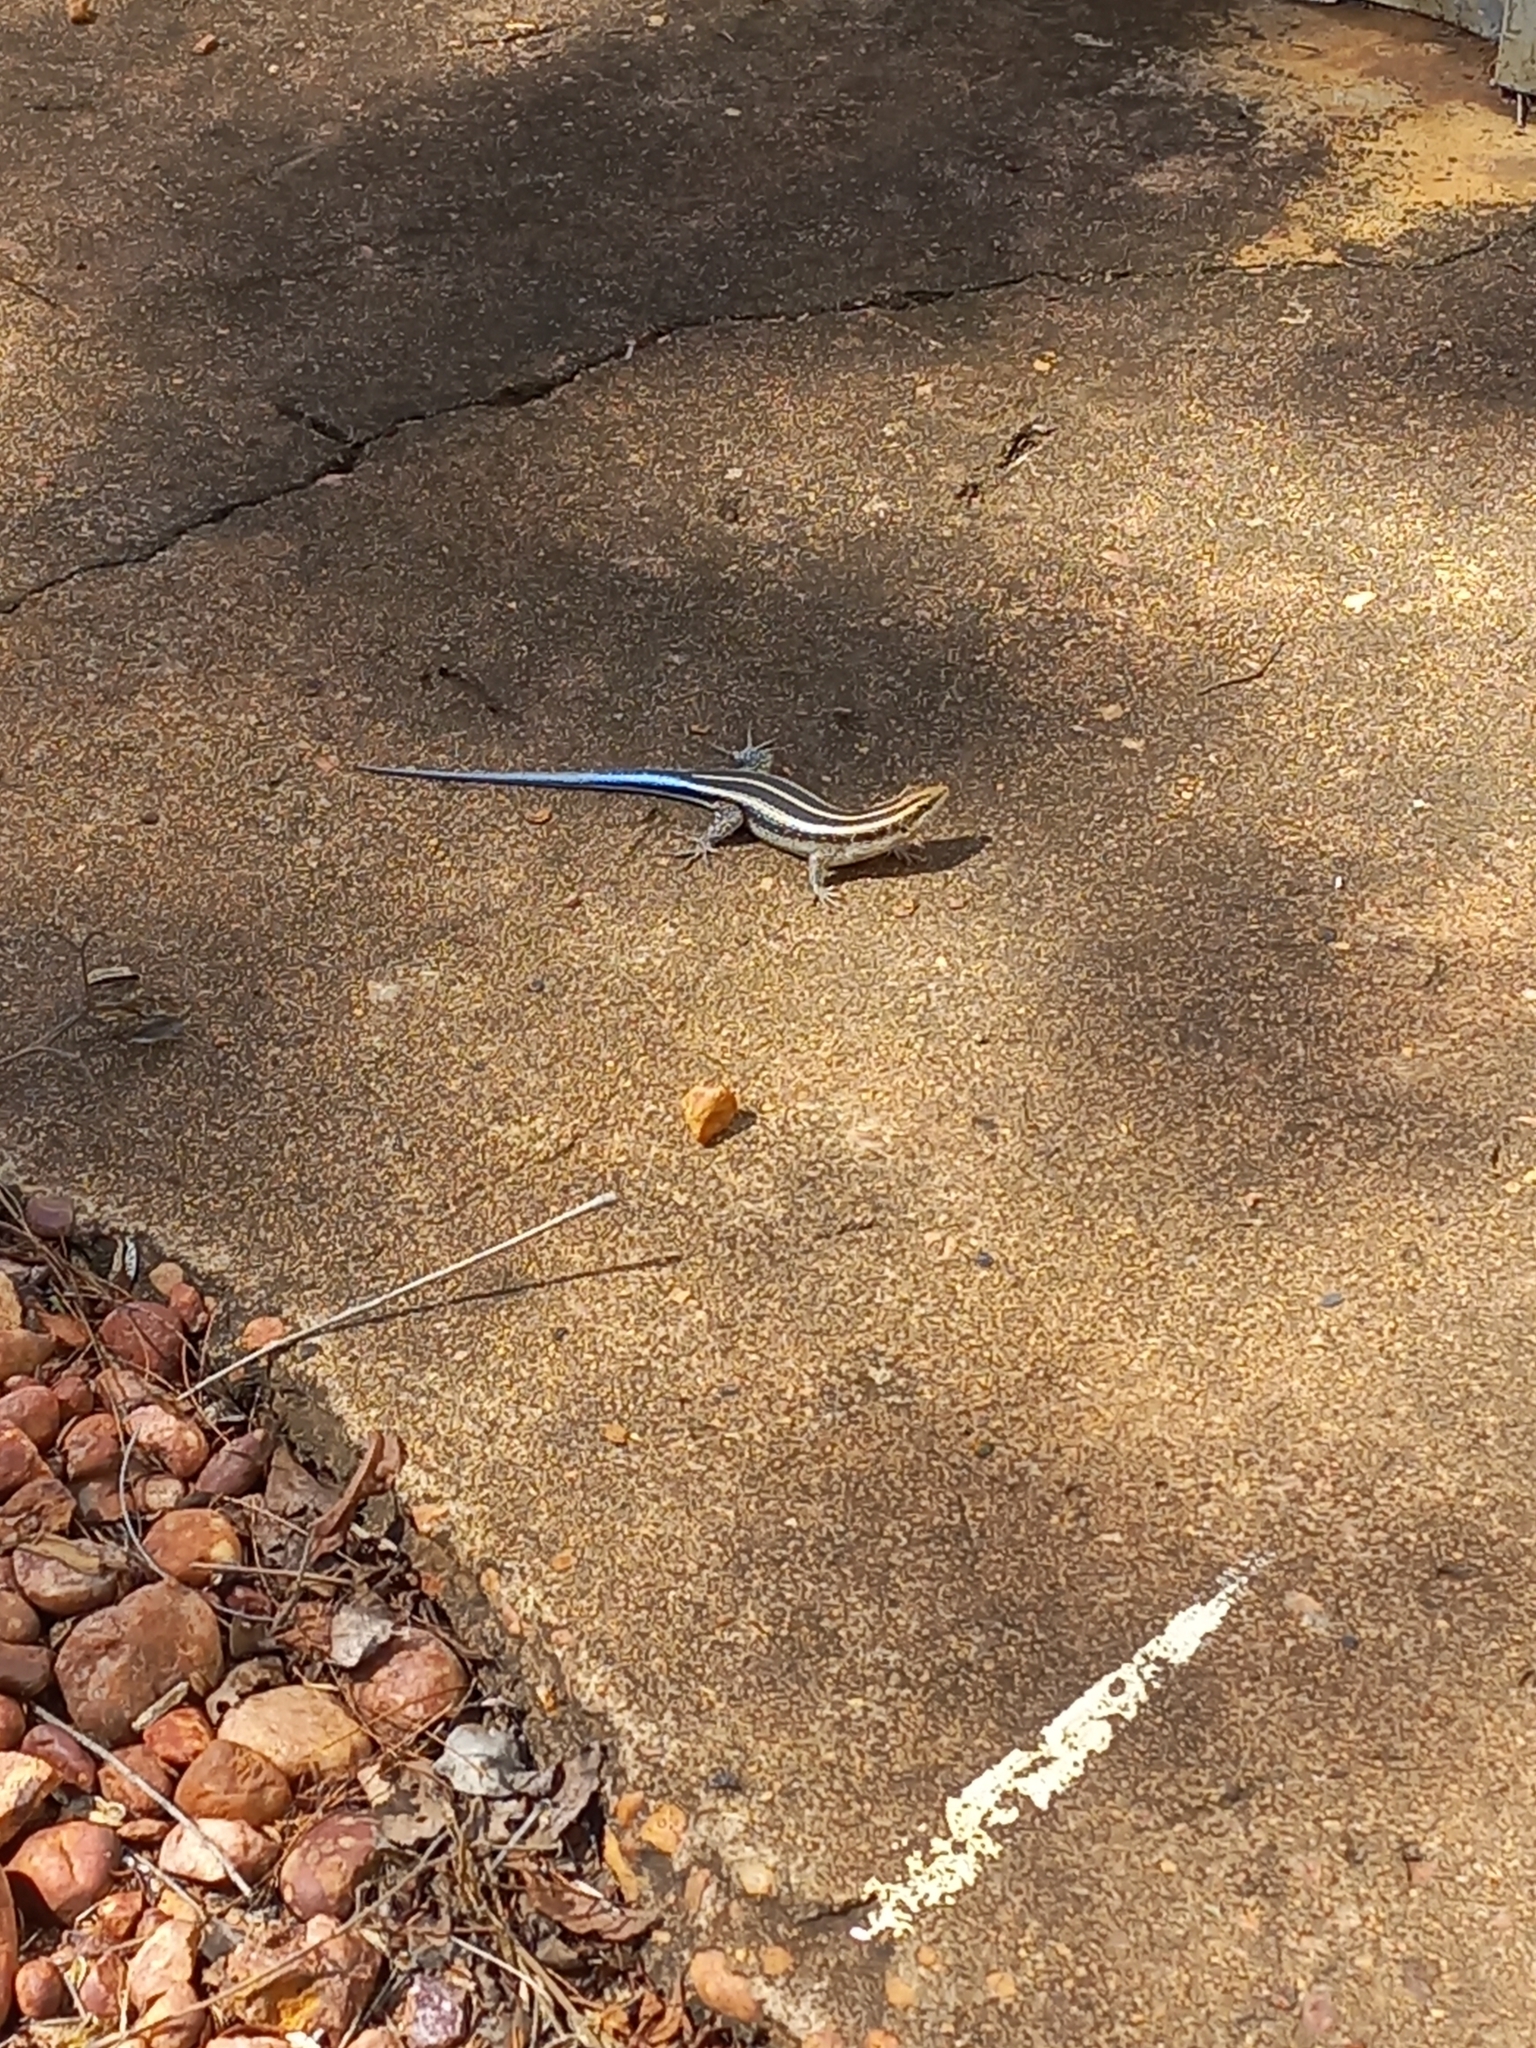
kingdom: Animalia
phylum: Chordata
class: Squamata
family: Scincidae
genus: Trachylepis
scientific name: Trachylepis margaritifera
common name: Rainbow skink
